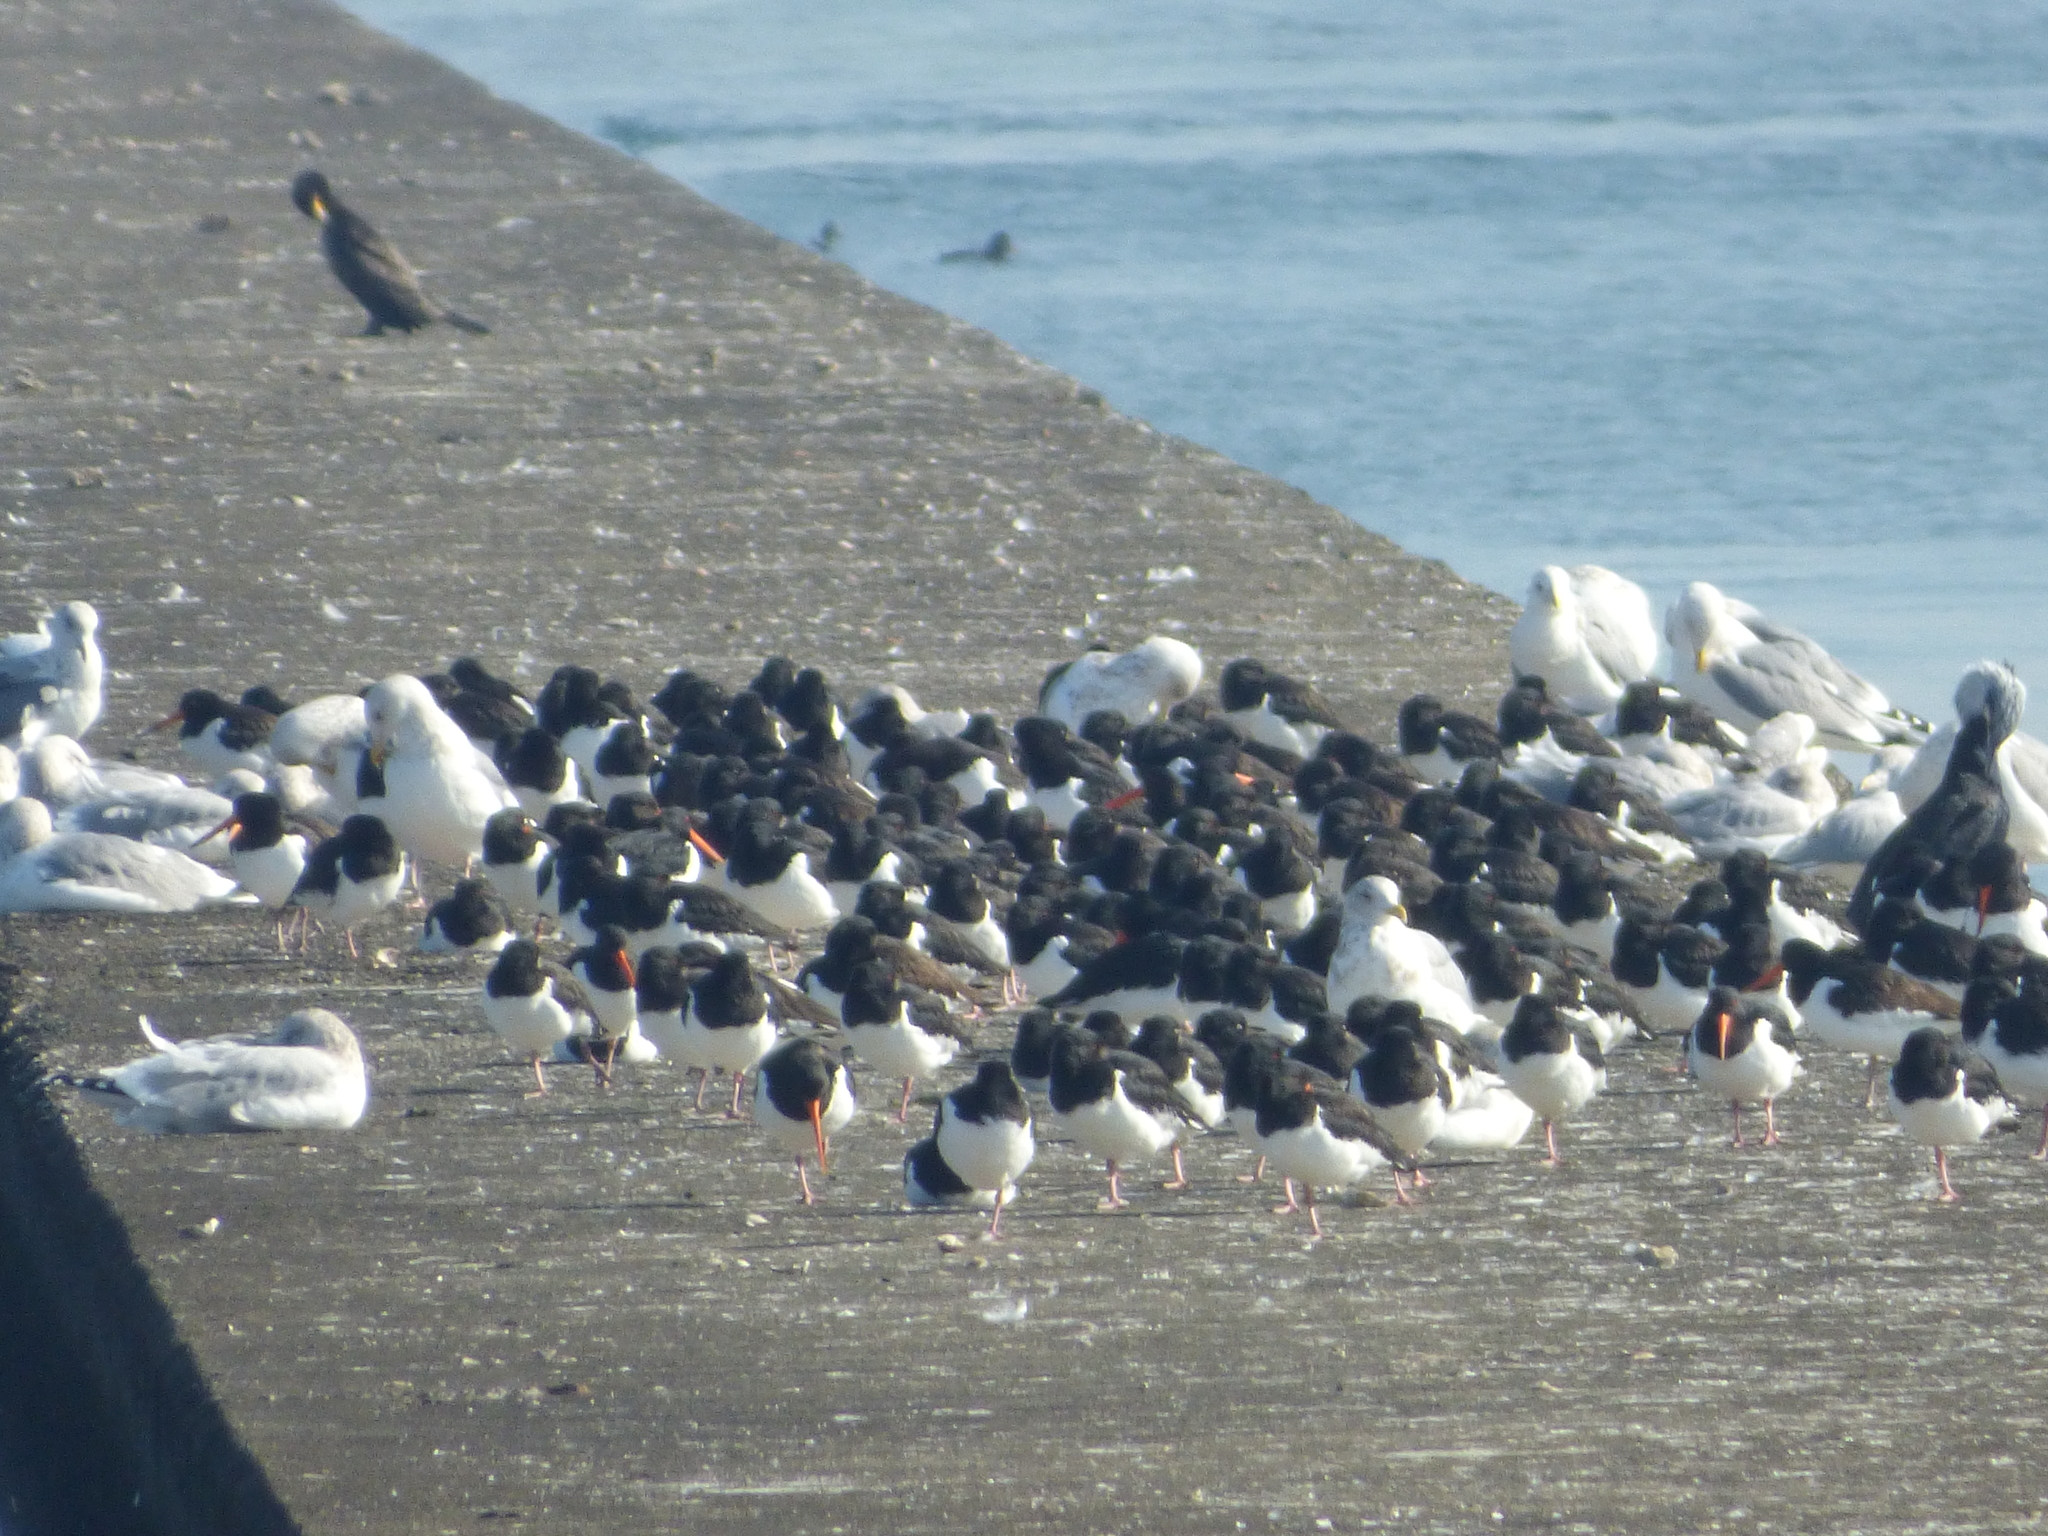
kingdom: Animalia
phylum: Chordata
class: Aves
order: Charadriiformes
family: Haematopodidae
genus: Haematopus
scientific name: Haematopus ostralegus
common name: Eurasian oystercatcher
